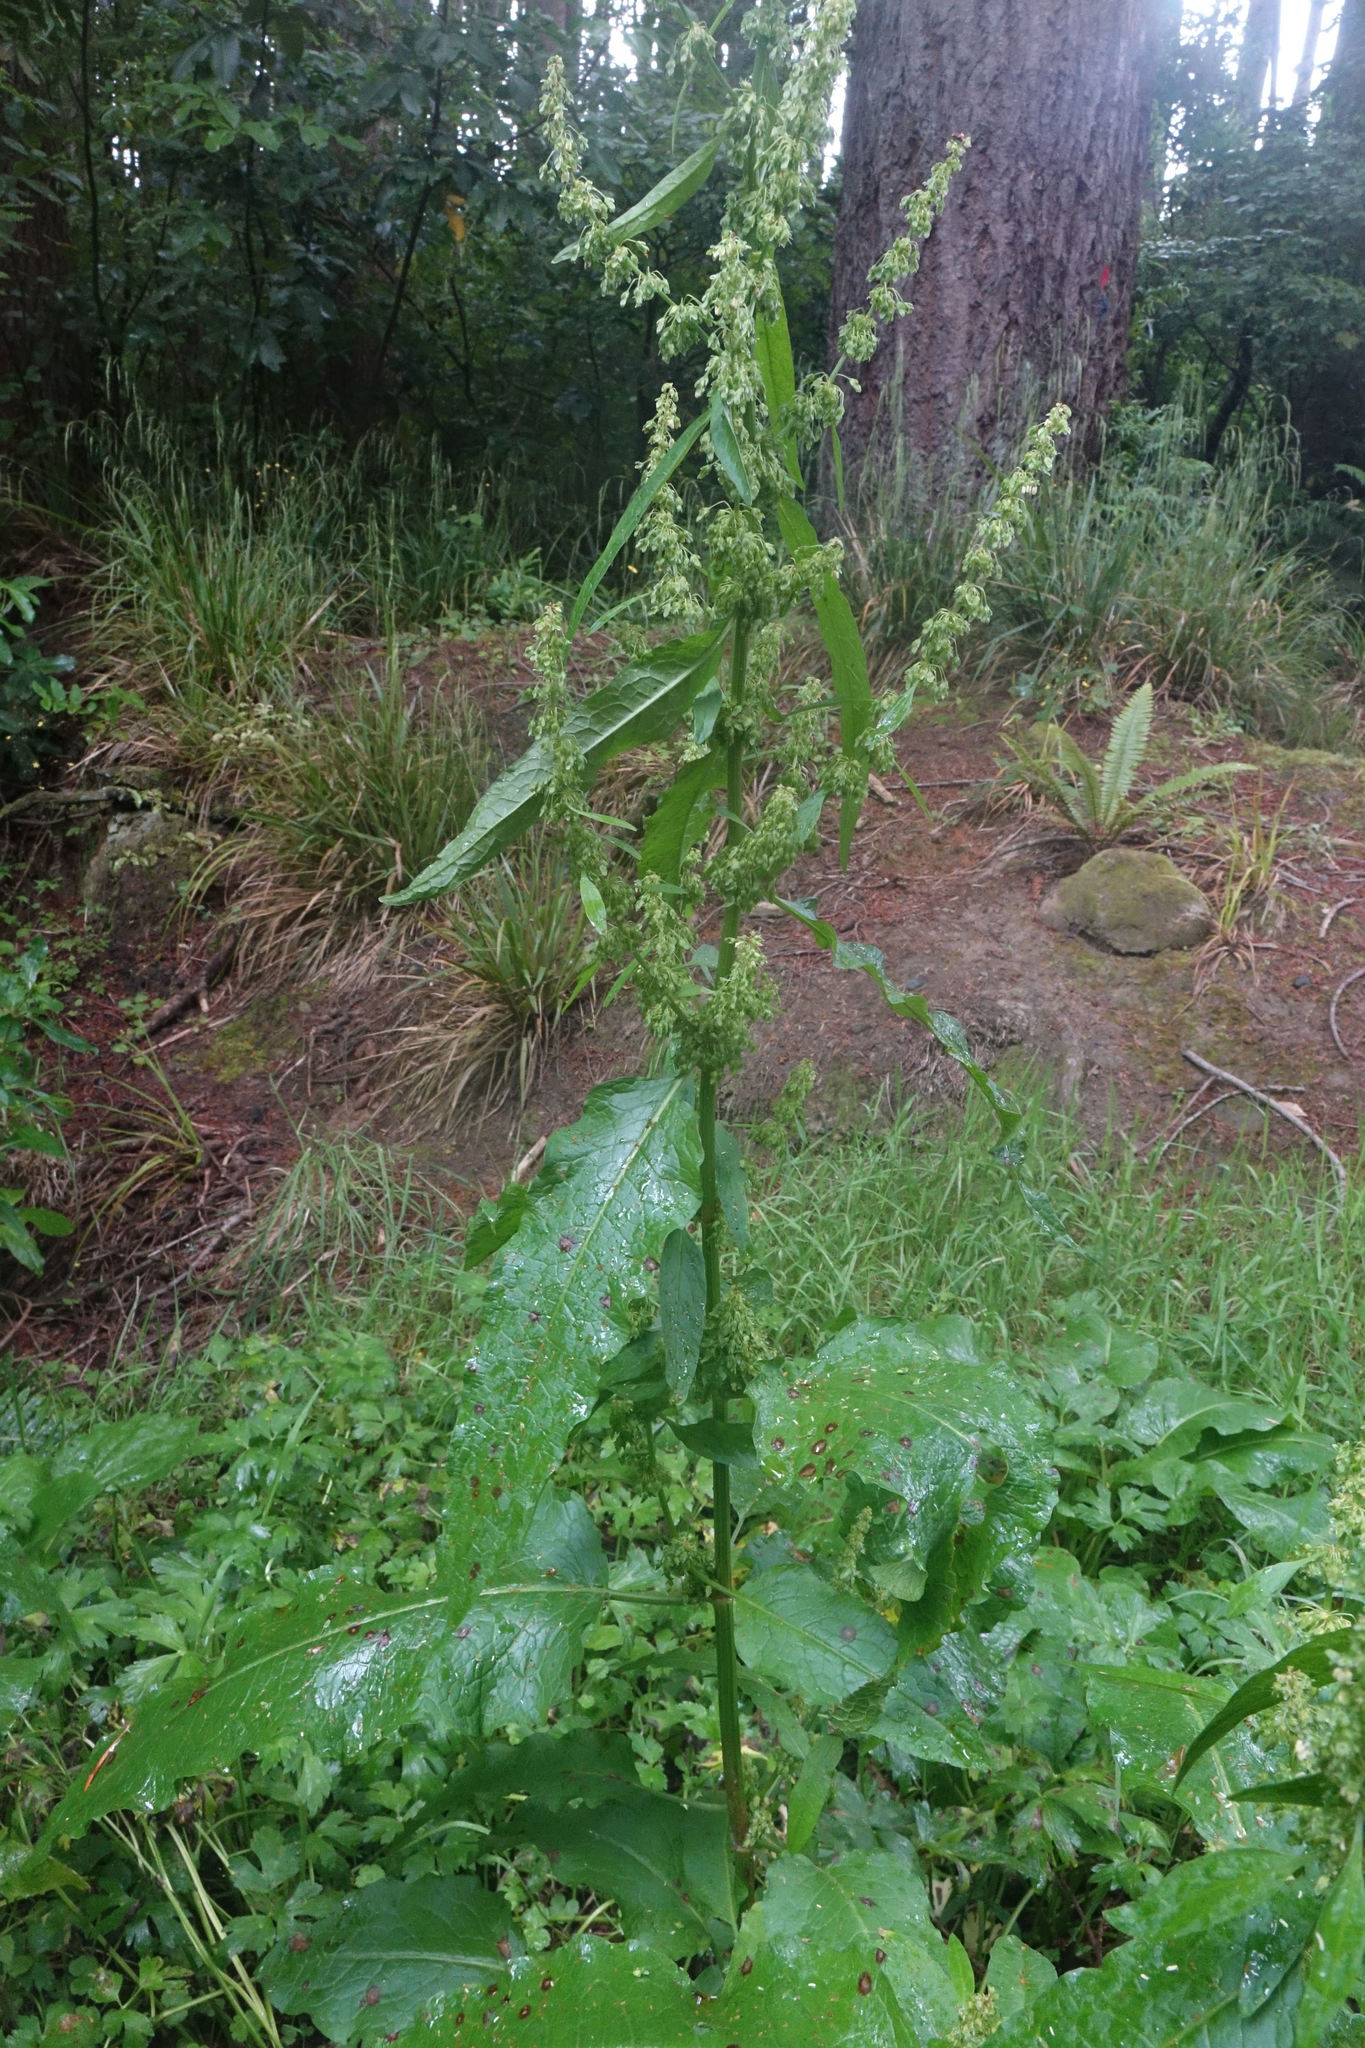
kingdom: Plantae
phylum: Tracheophyta
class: Magnoliopsida
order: Caryophyllales
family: Polygonaceae
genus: Rumex
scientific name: Rumex obtusifolius
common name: Bitter dock
